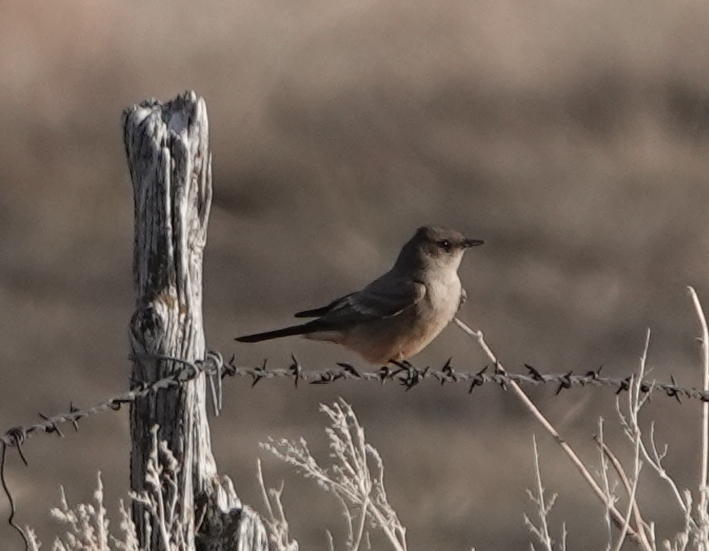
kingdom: Animalia
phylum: Chordata
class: Aves
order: Passeriformes
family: Tyrannidae
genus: Sayornis
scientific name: Sayornis saya
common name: Say's phoebe
